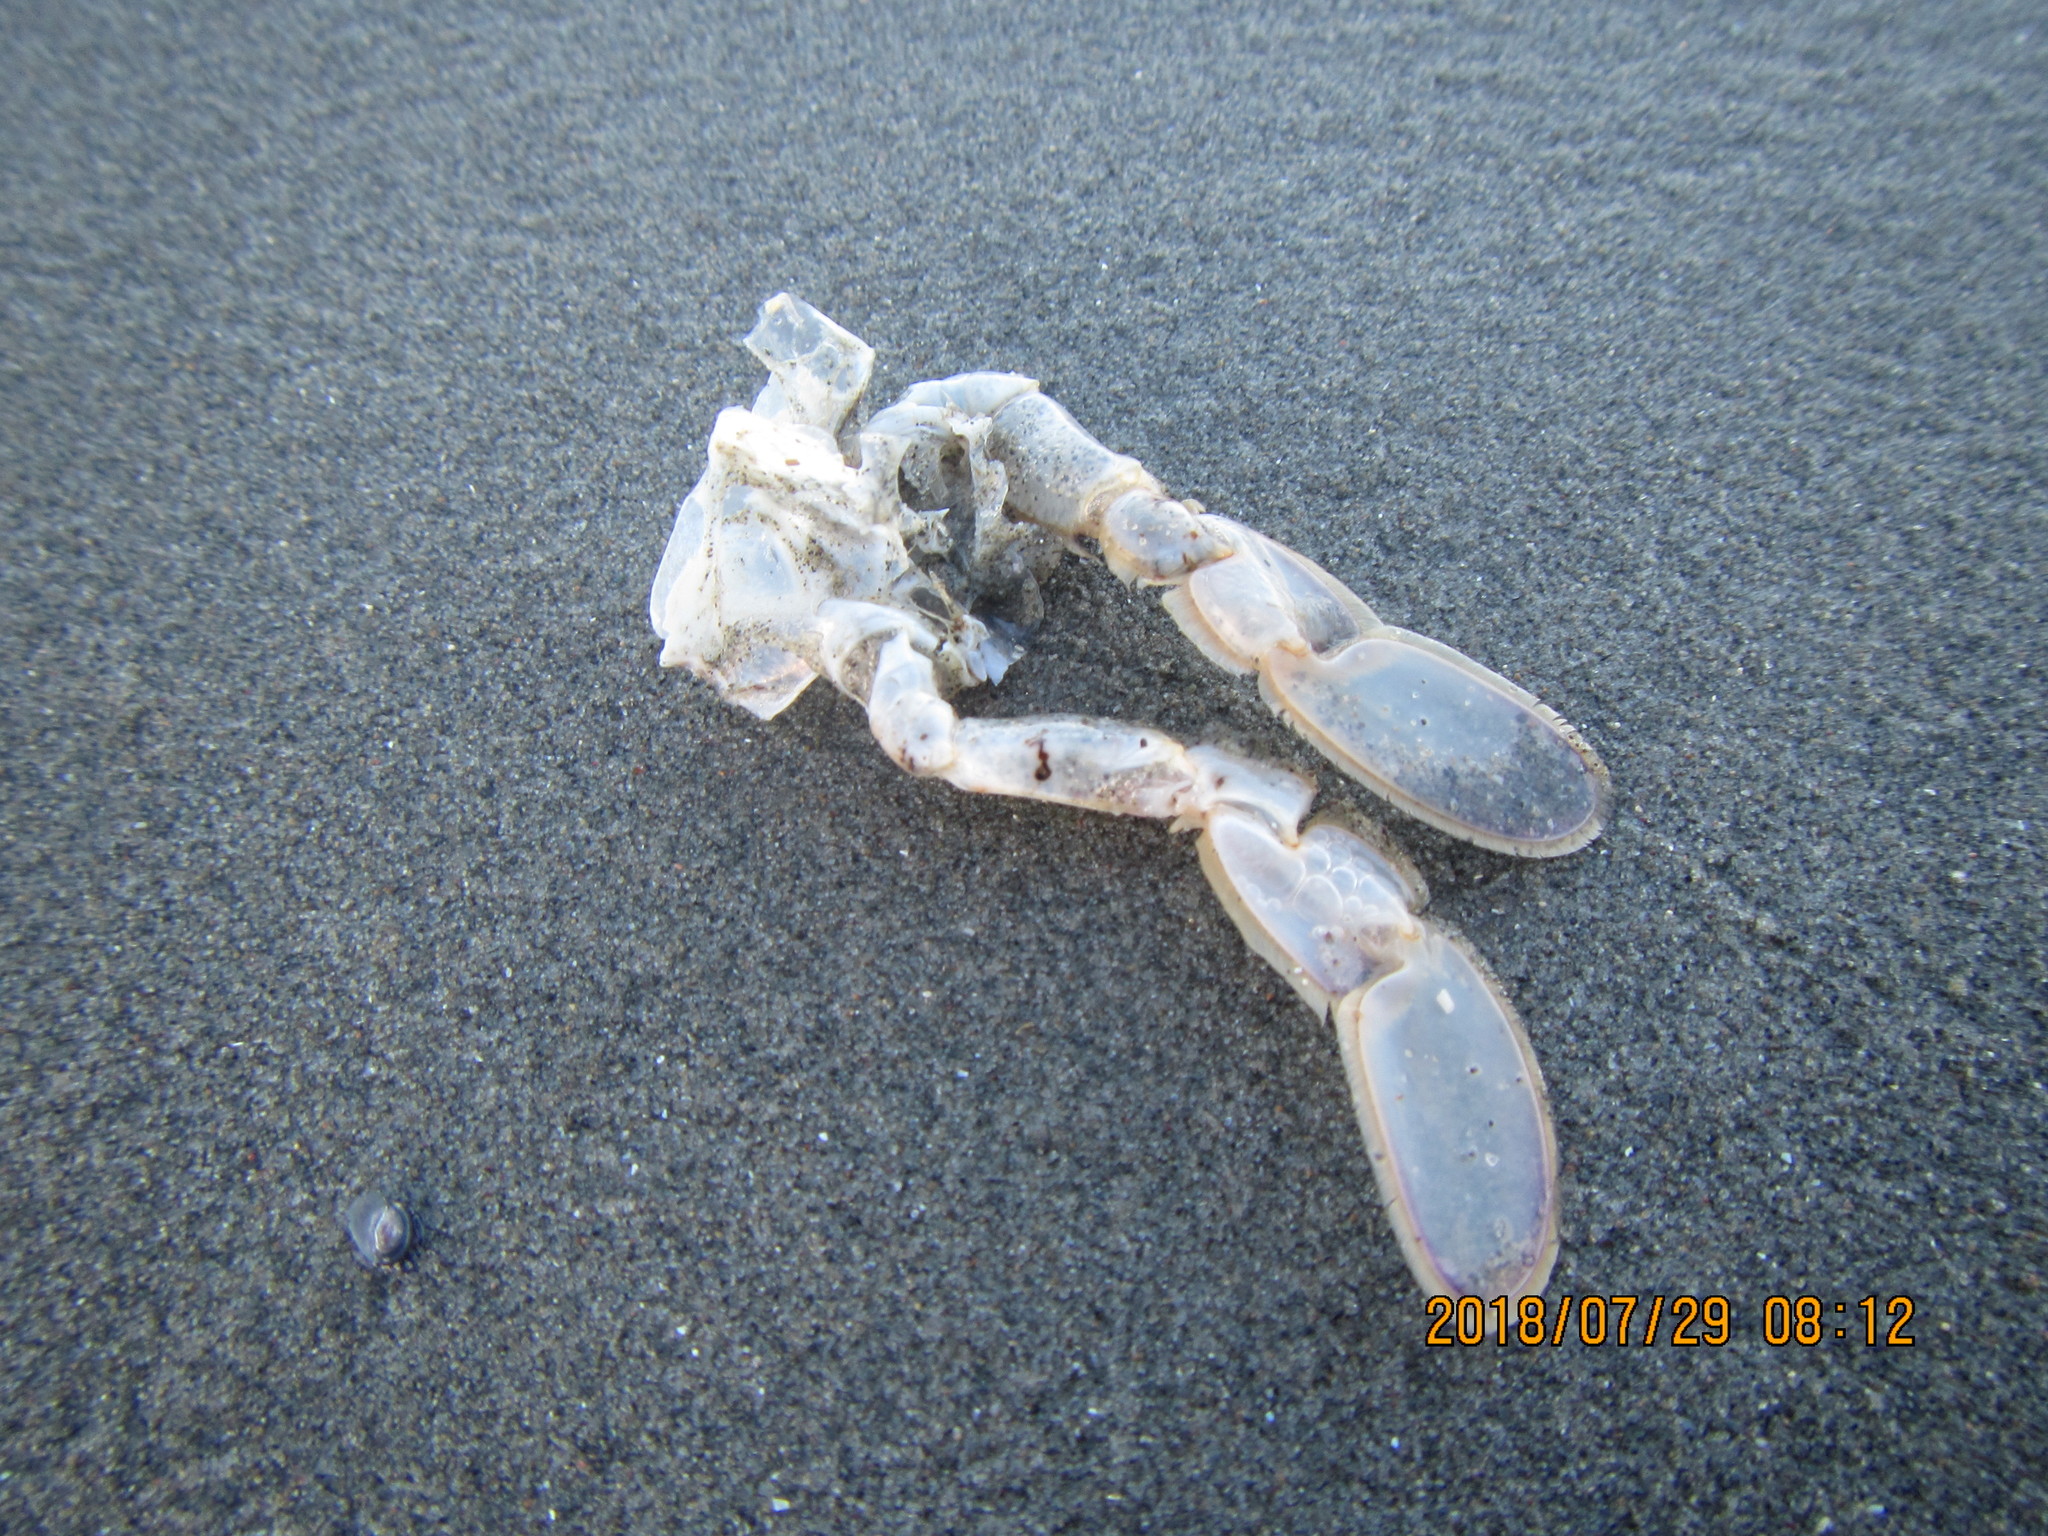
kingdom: Animalia
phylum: Arthropoda
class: Malacostraca
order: Decapoda
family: Ovalipidae
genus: Ovalipes
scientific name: Ovalipes catharus
